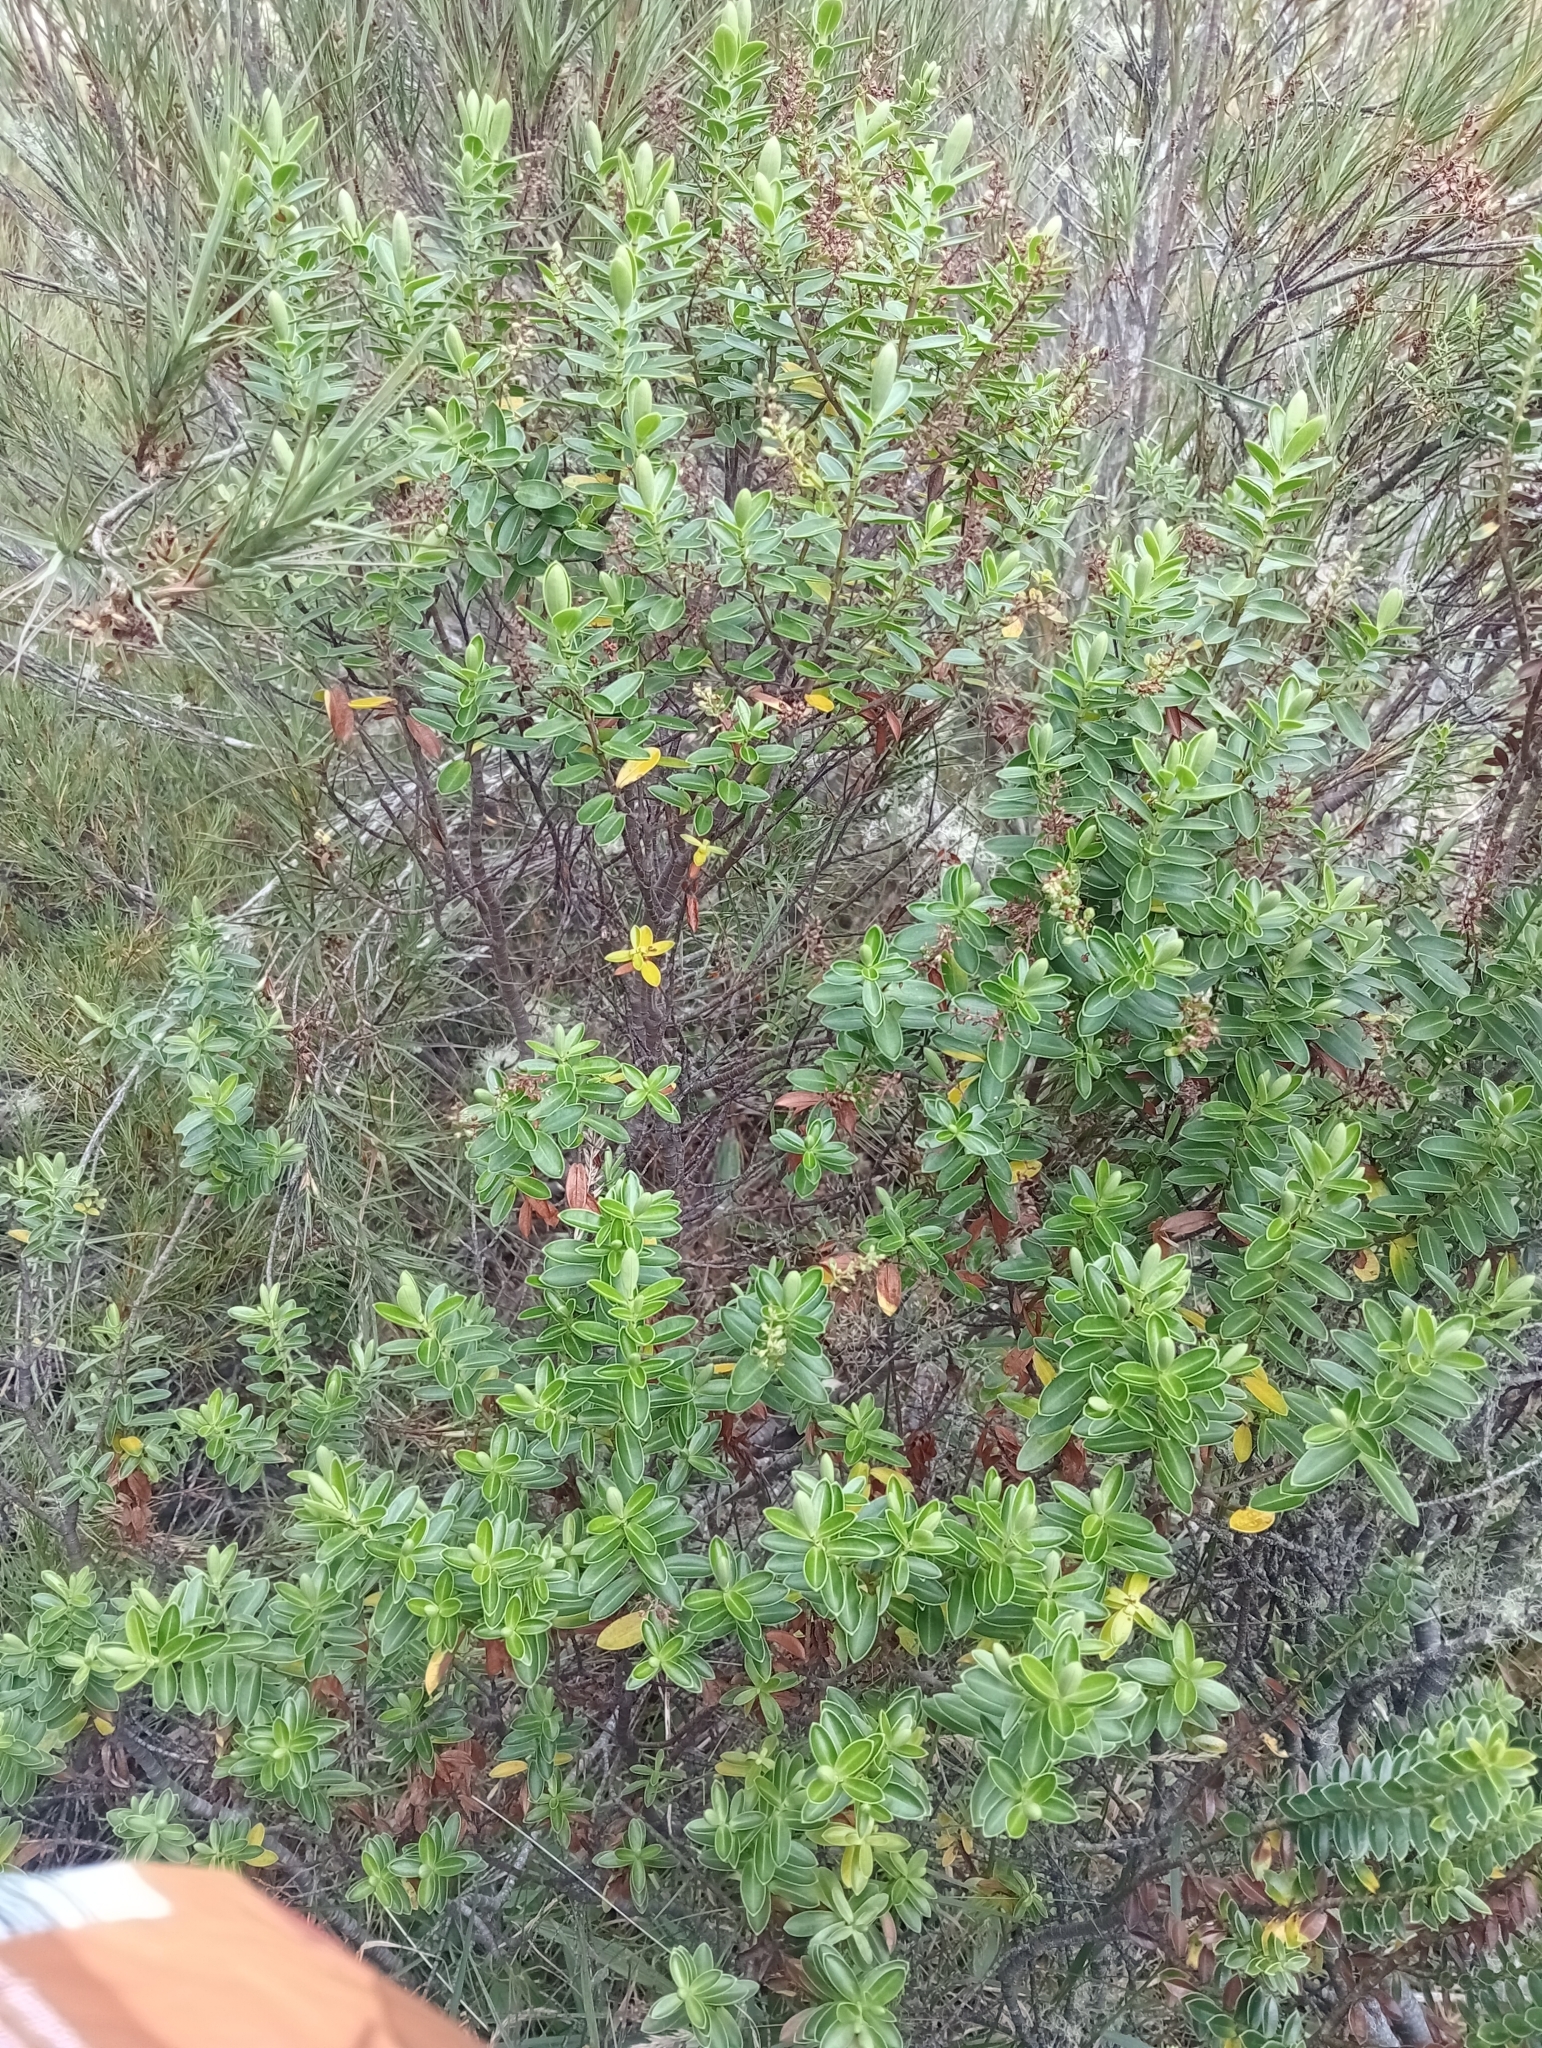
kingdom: Plantae
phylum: Tracheophyta
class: Magnoliopsida
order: Lamiales
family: Plantaginaceae
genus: Veronica
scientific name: Veronica rakaiensis
